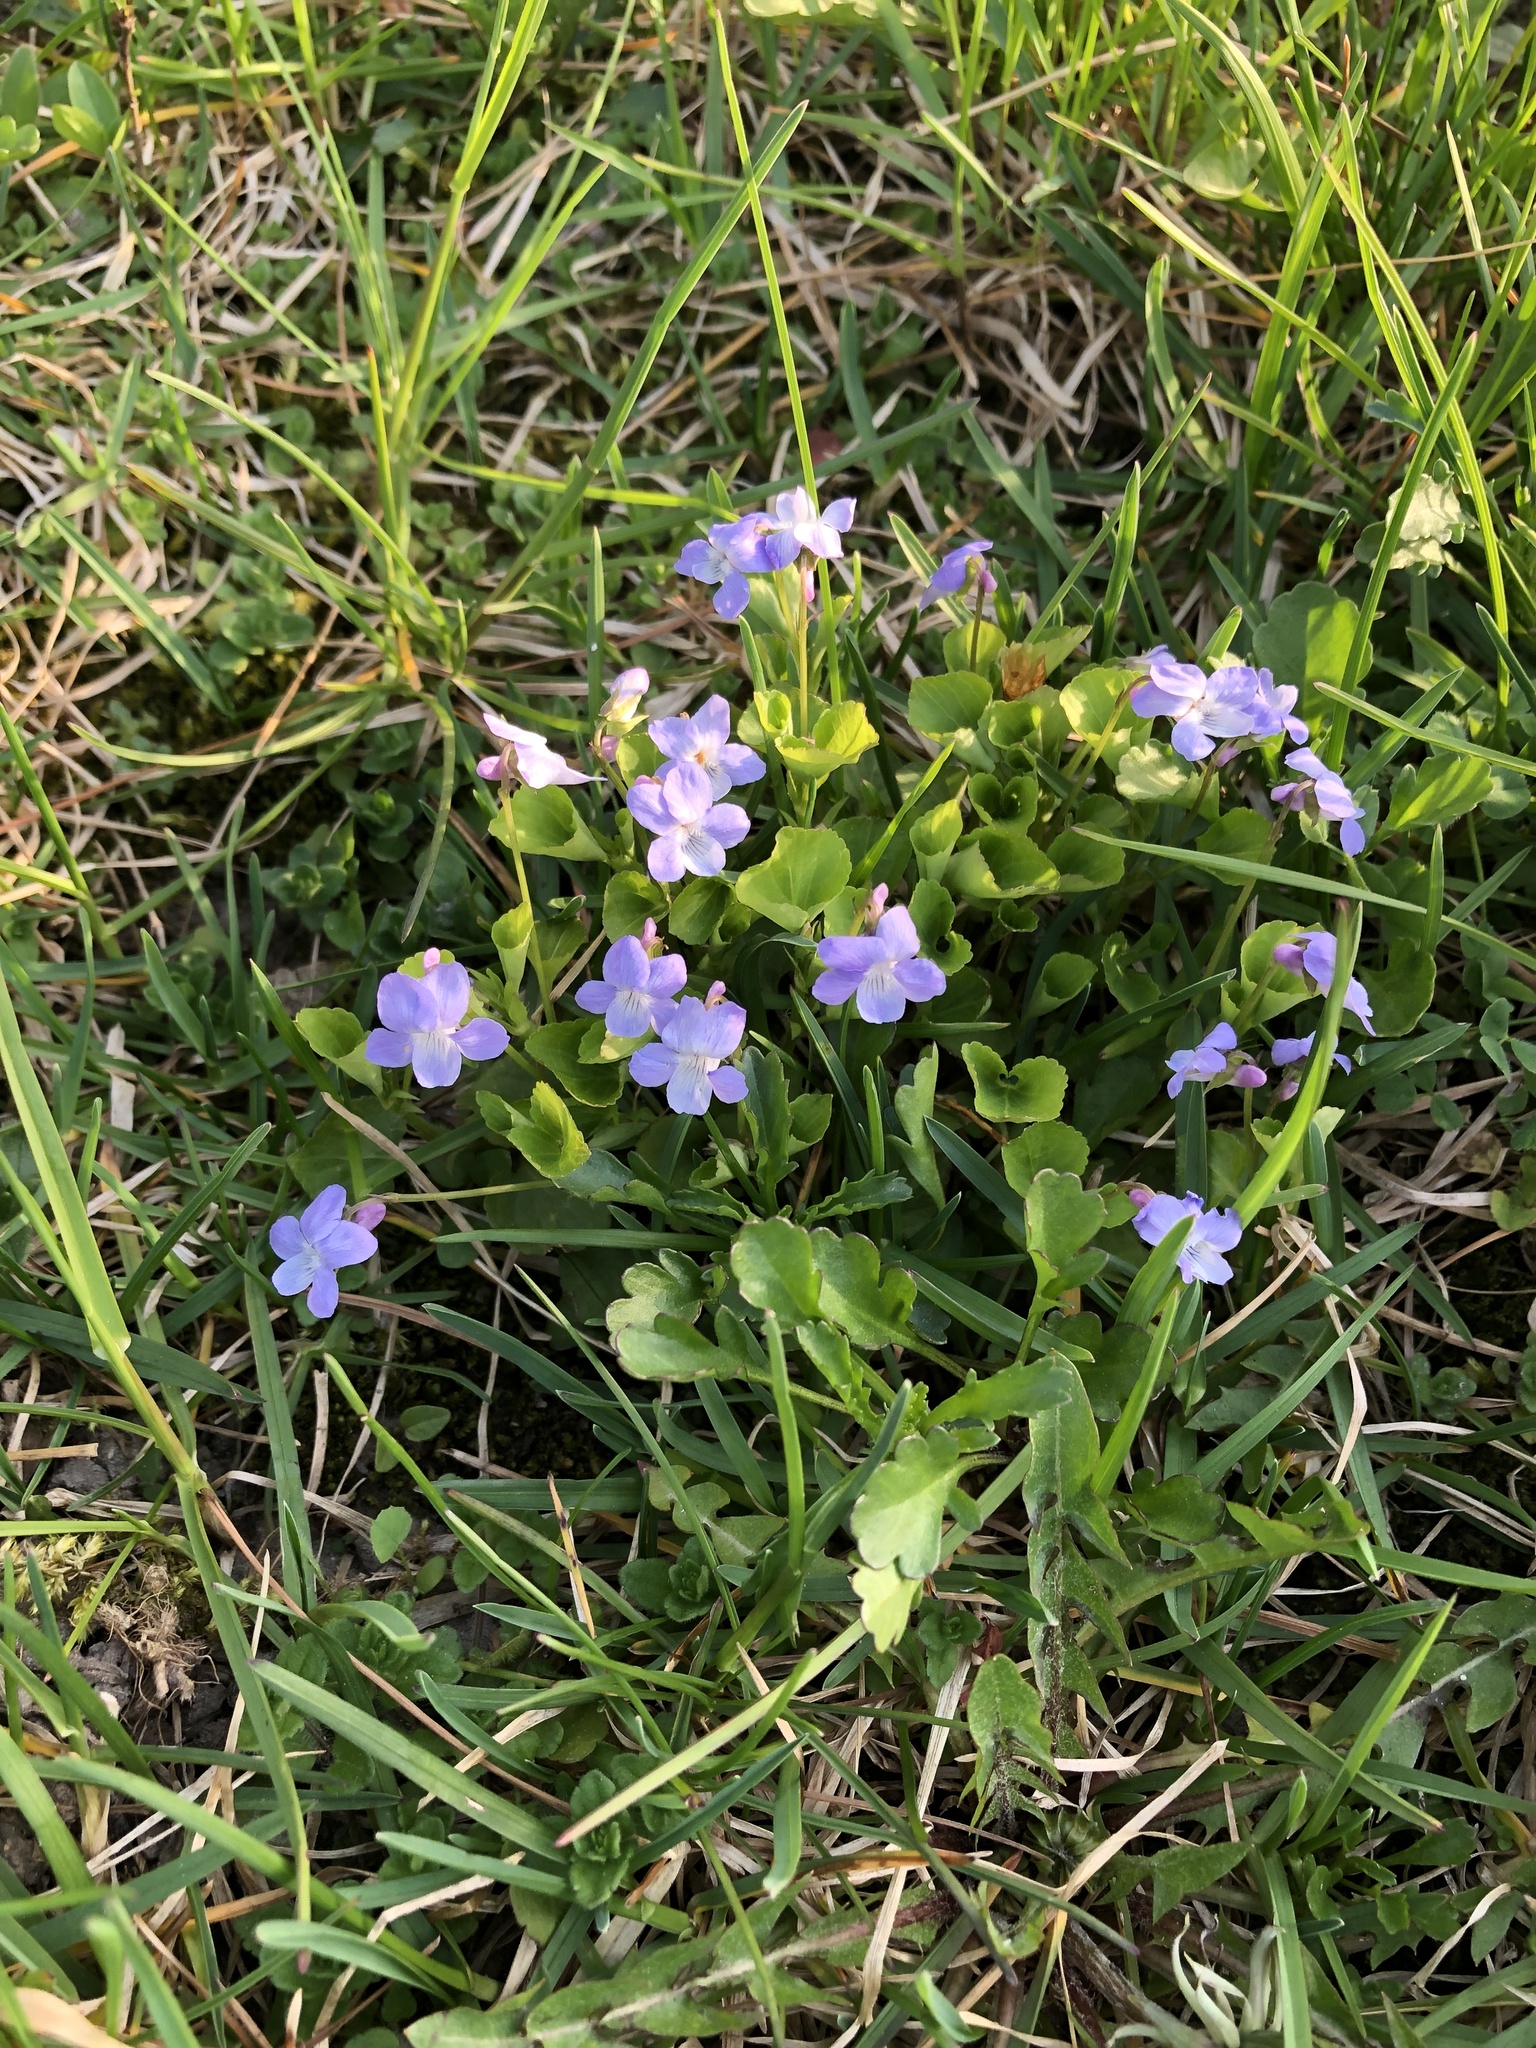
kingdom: Plantae
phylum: Tracheophyta
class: Magnoliopsida
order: Malpighiales
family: Violaceae
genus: Viola
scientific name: Viola labradorica
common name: Labrador violet
